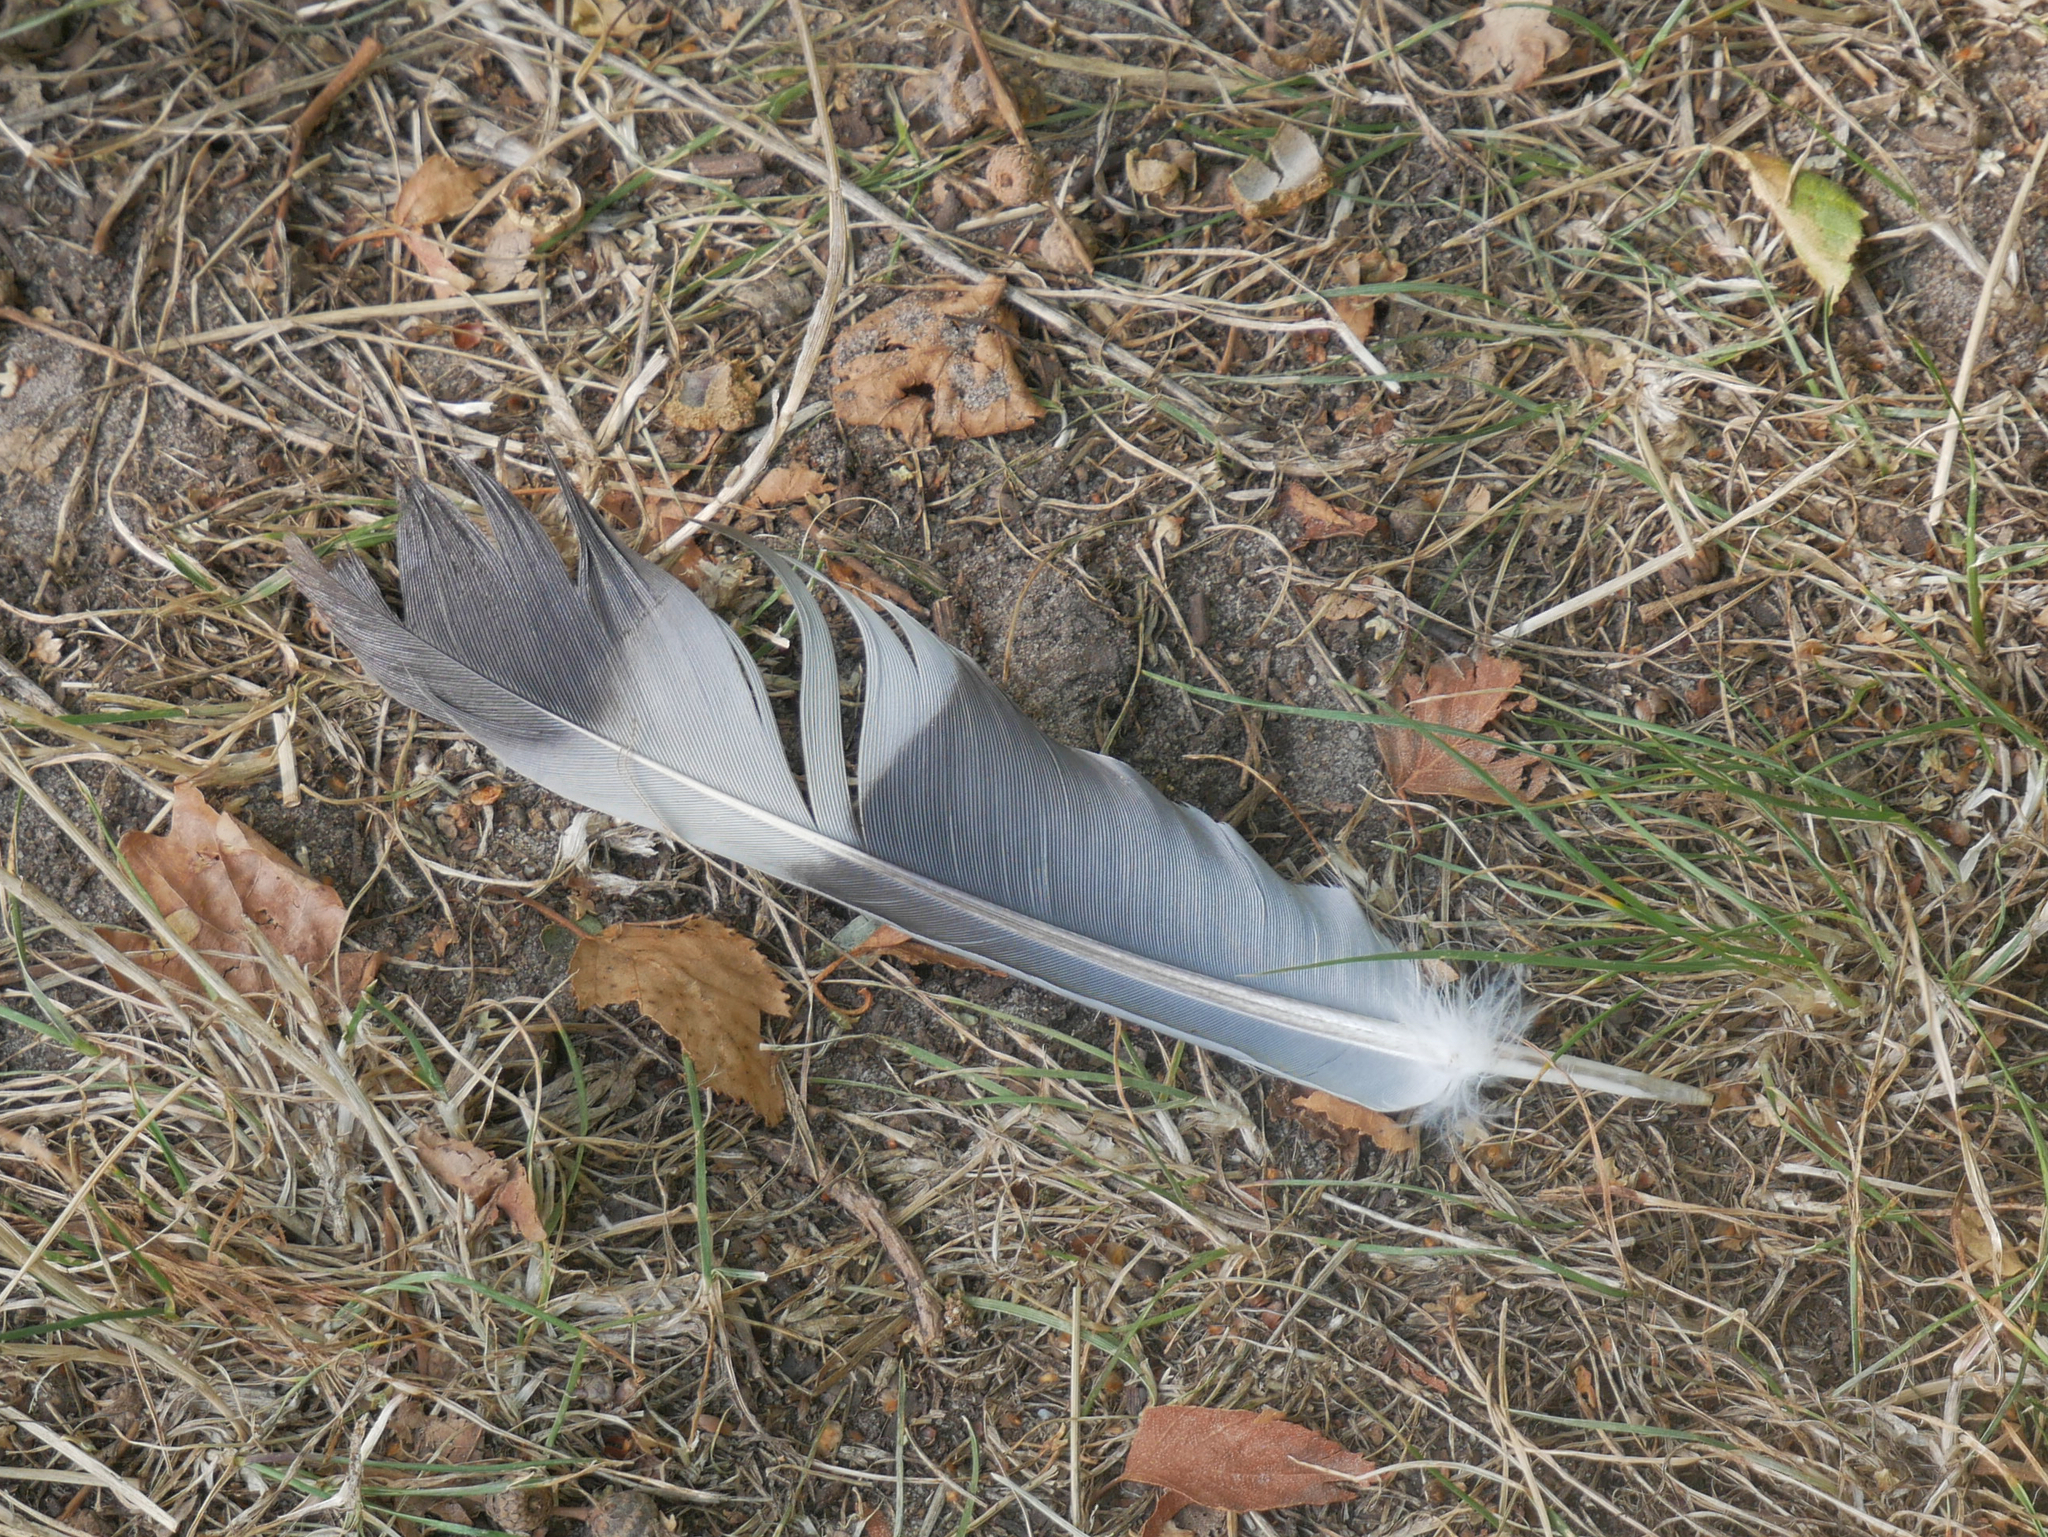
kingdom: Animalia
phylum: Chordata
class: Aves
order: Columbiformes
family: Columbidae
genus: Columba
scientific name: Columba palumbus
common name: Common wood pigeon
